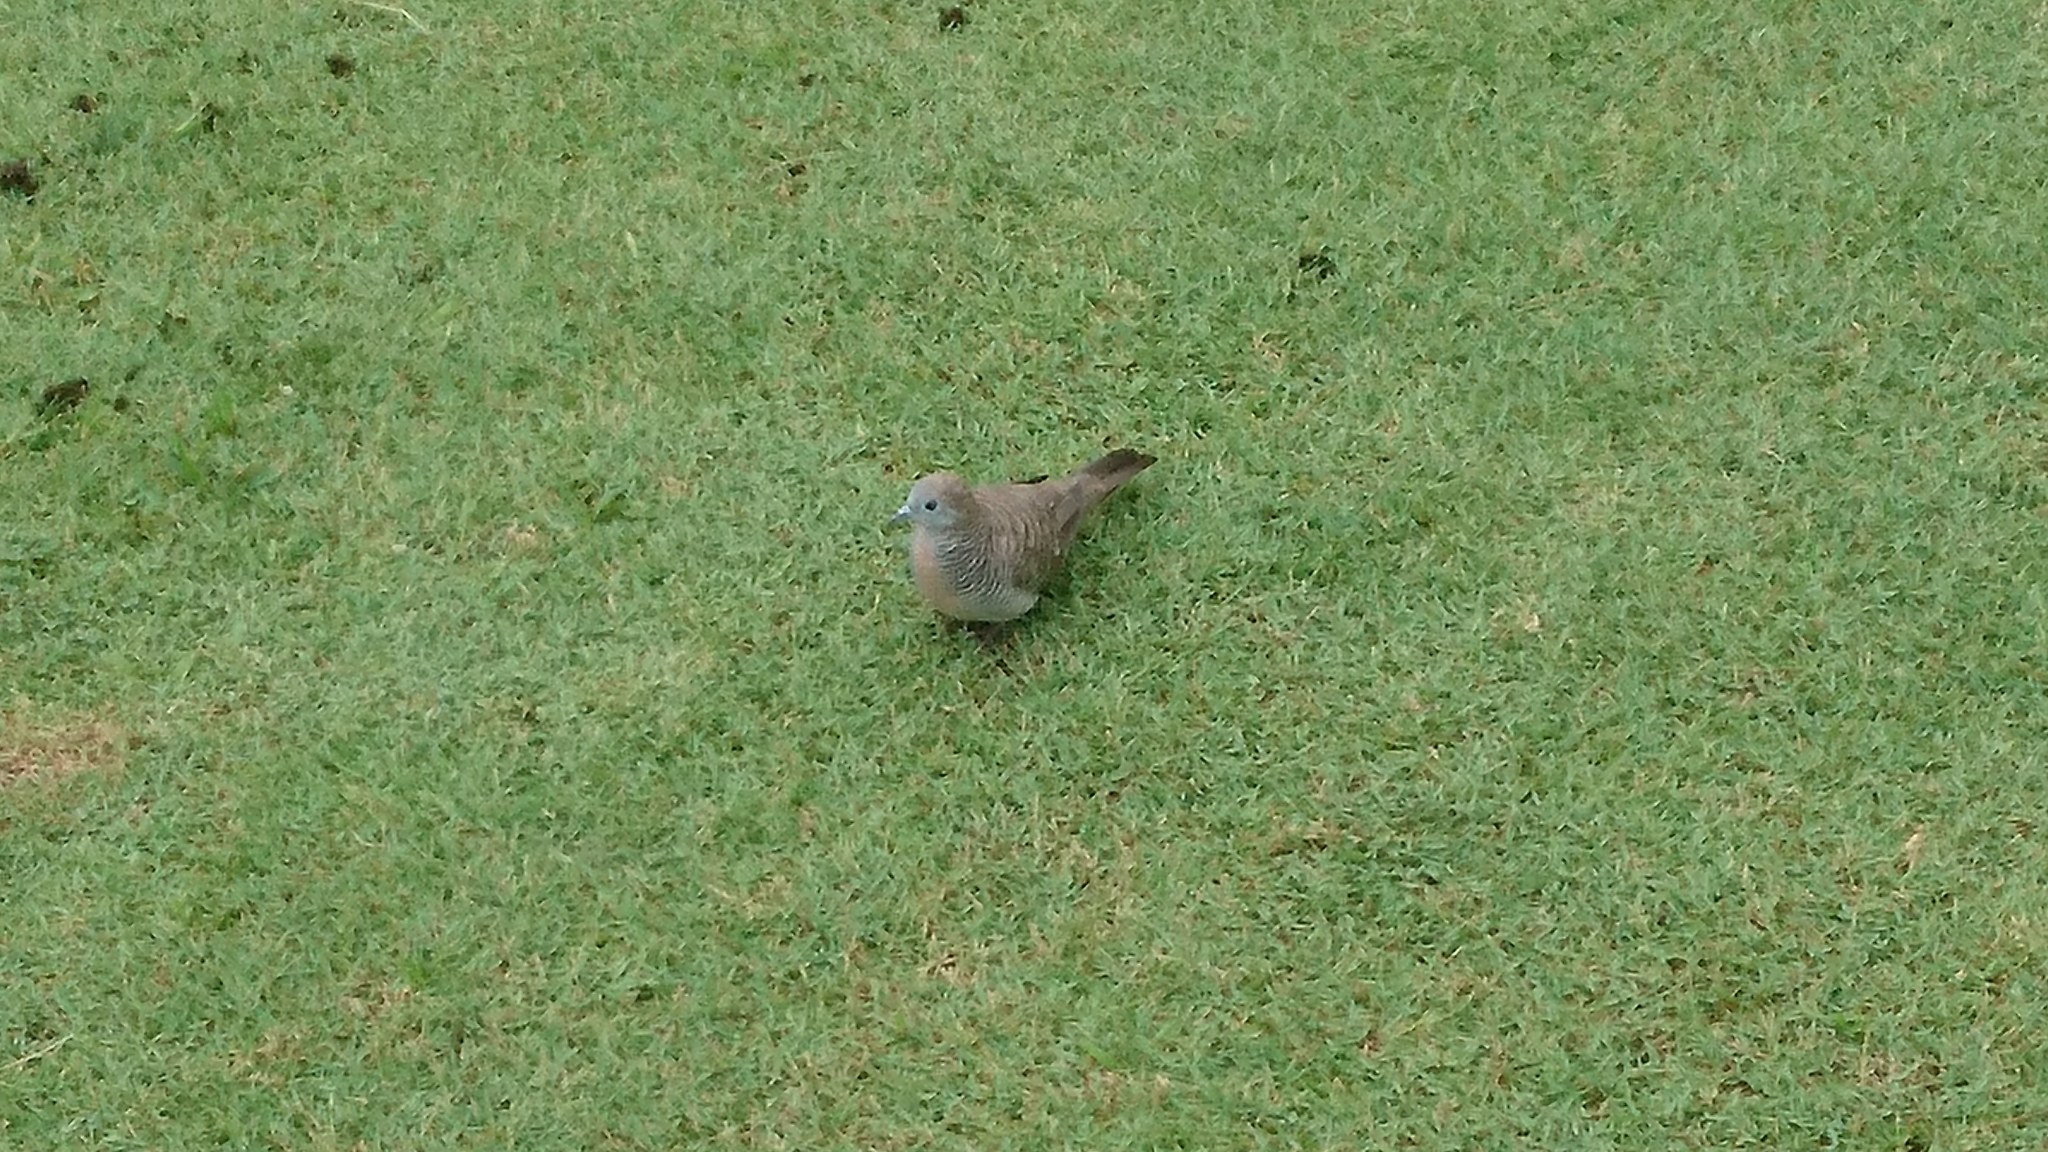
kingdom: Animalia
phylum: Chordata
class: Aves
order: Columbiformes
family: Columbidae
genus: Geopelia
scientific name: Geopelia striata
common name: Zebra dove
